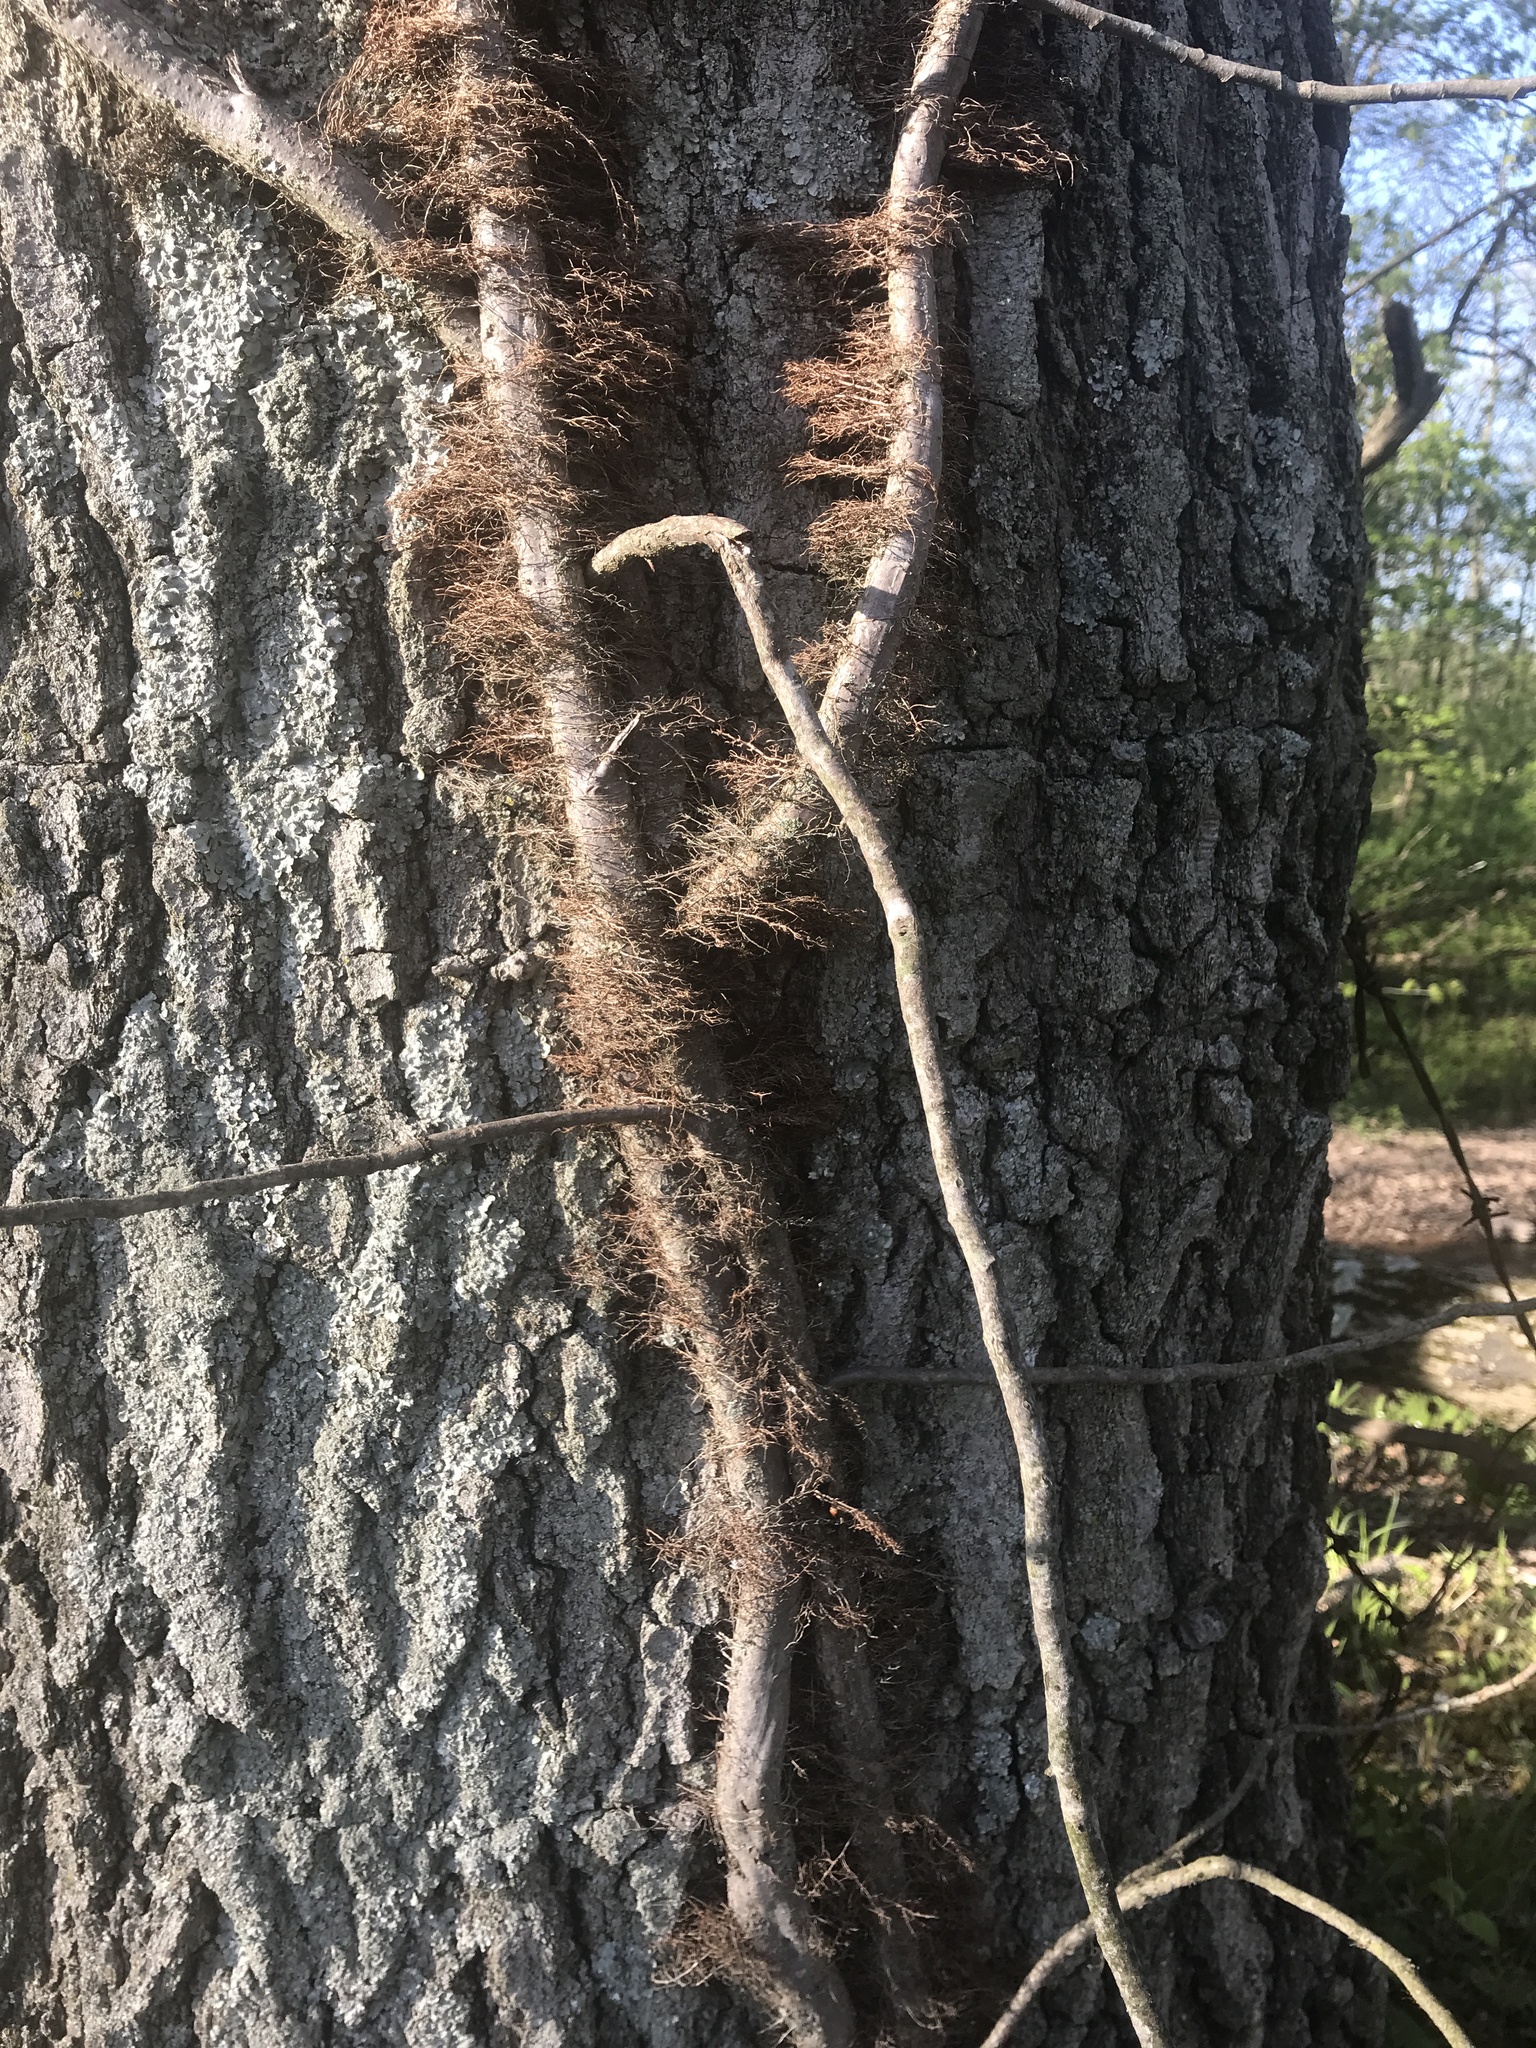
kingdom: Plantae
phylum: Tracheophyta
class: Magnoliopsida
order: Sapindales
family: Anacardiaceae
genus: Toxicodendron
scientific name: Toxicodendron radicans
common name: Poison ivy
